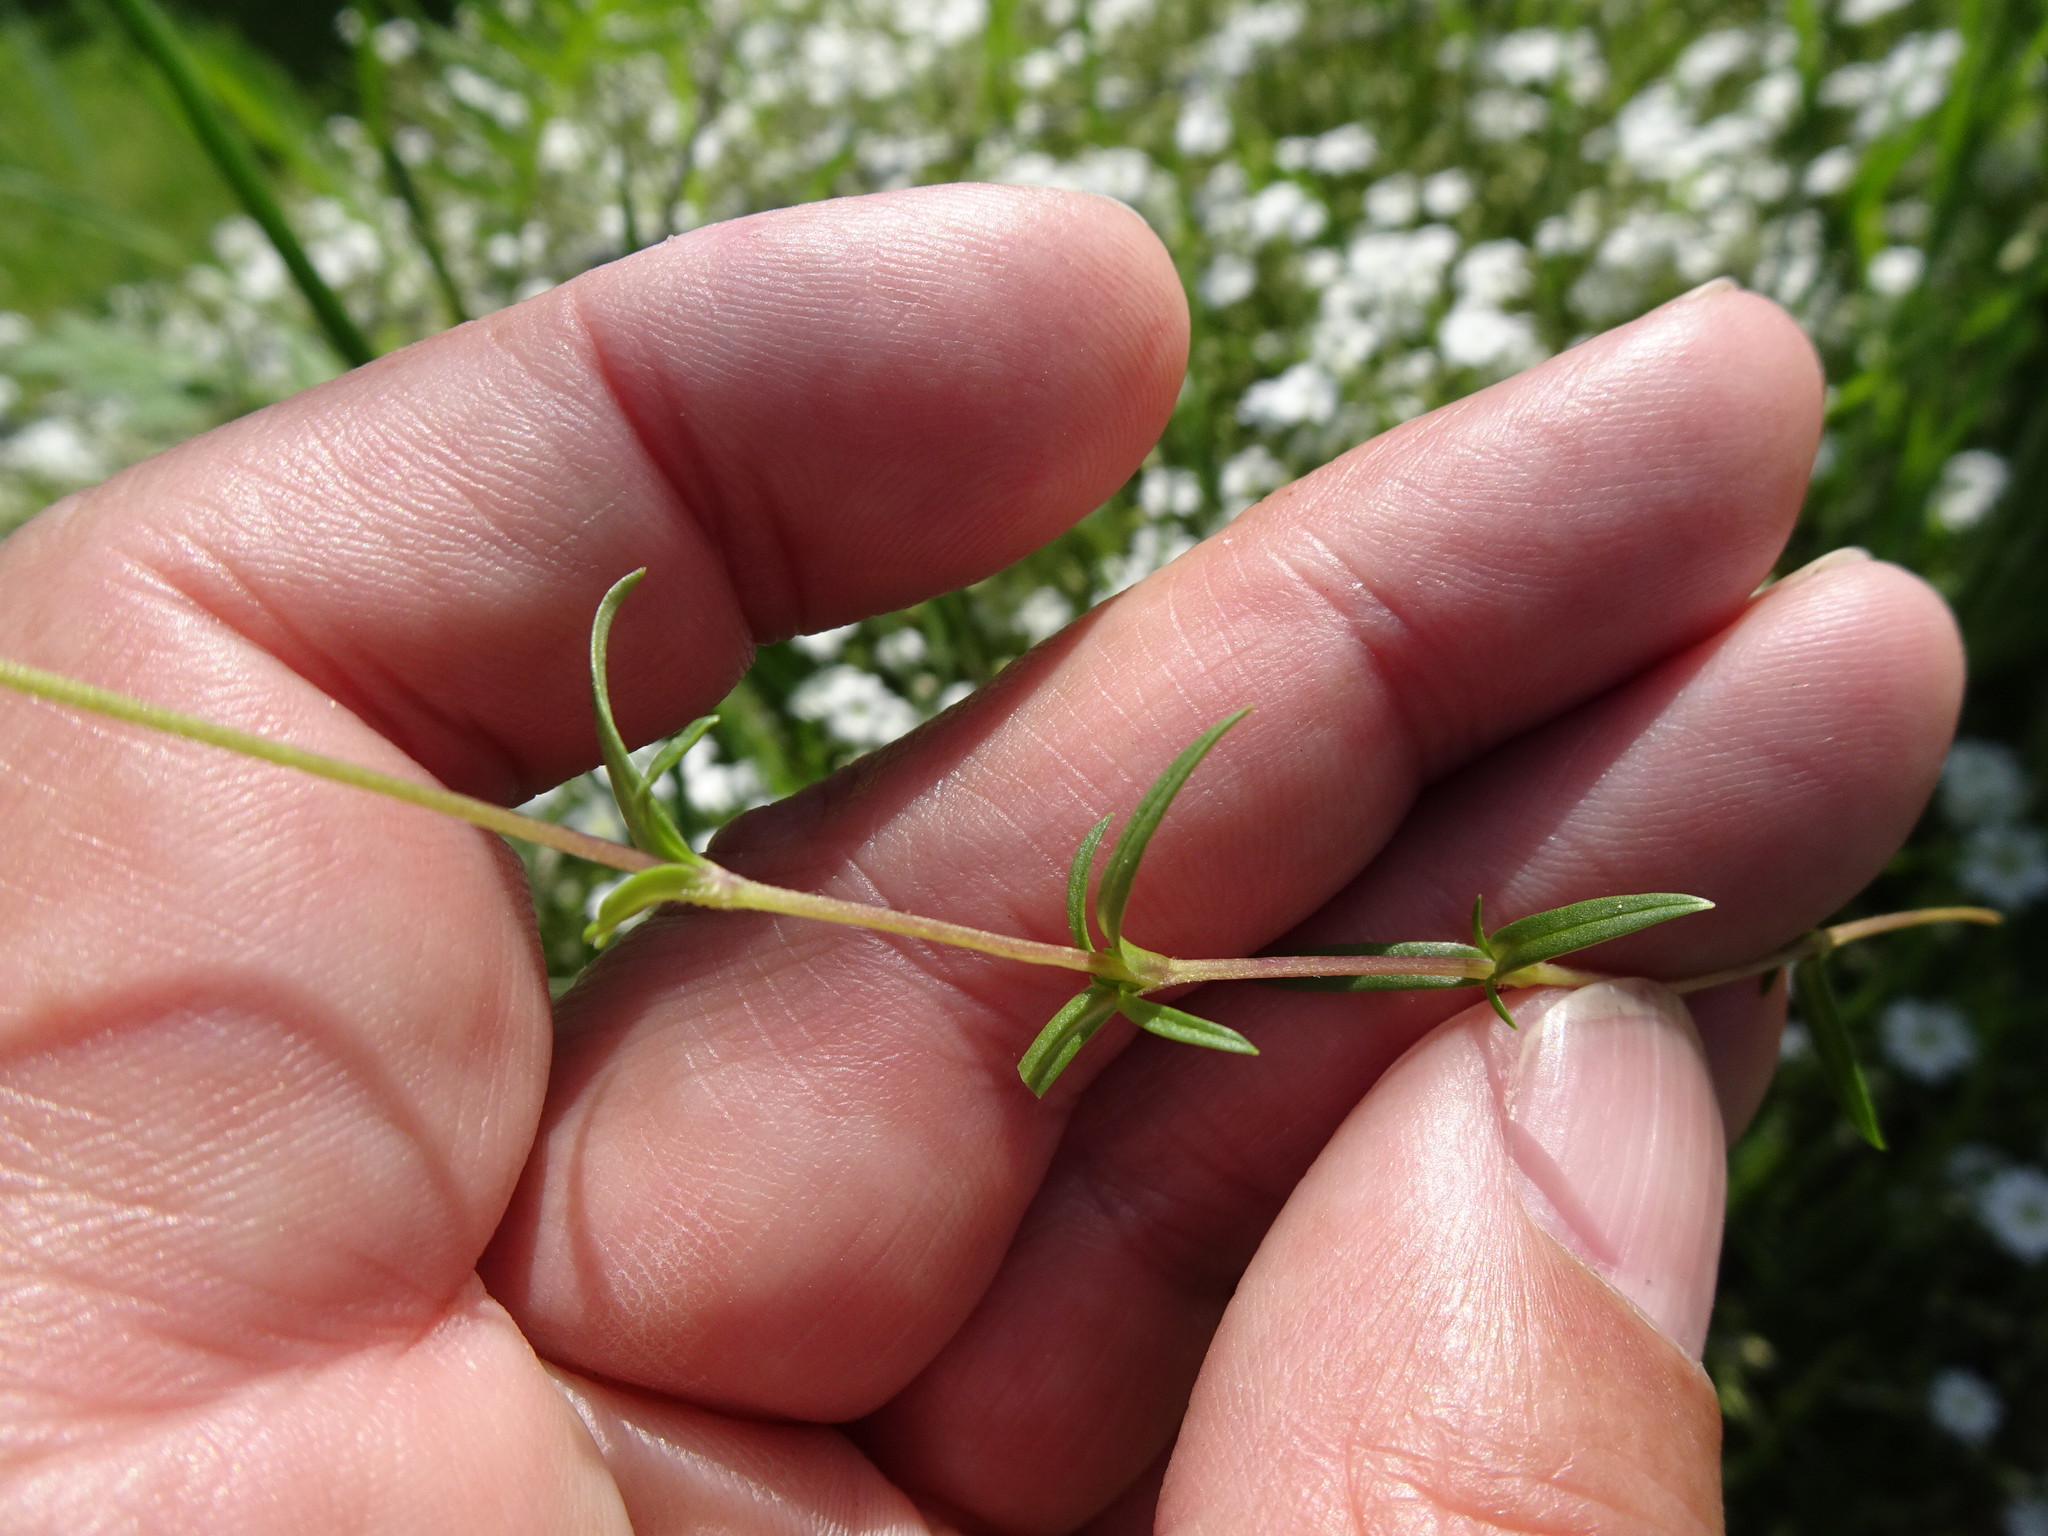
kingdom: Plantae
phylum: Tracheophyta
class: Magnoliopsida
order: Caryophyllales
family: Caryophyllaceae
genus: Cerastium
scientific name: Cerastium arvense
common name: Field mouse-ear
